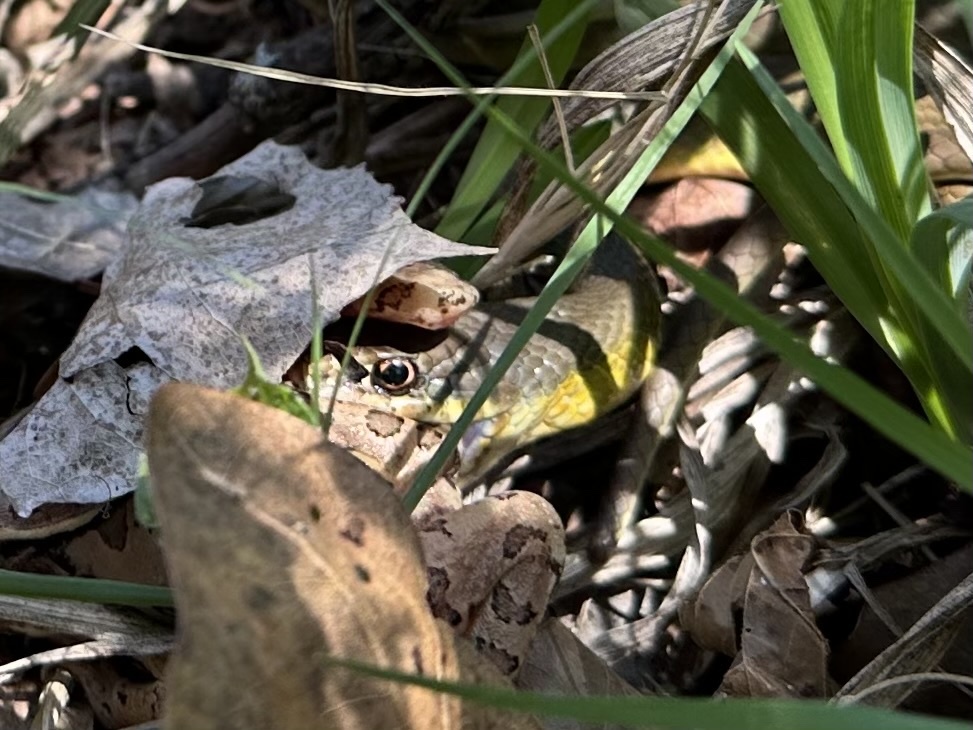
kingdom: Animalia
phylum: Chordata
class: Squamata
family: Colubridae
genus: Coluber
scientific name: Coluber constrictor
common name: Eastern racer
